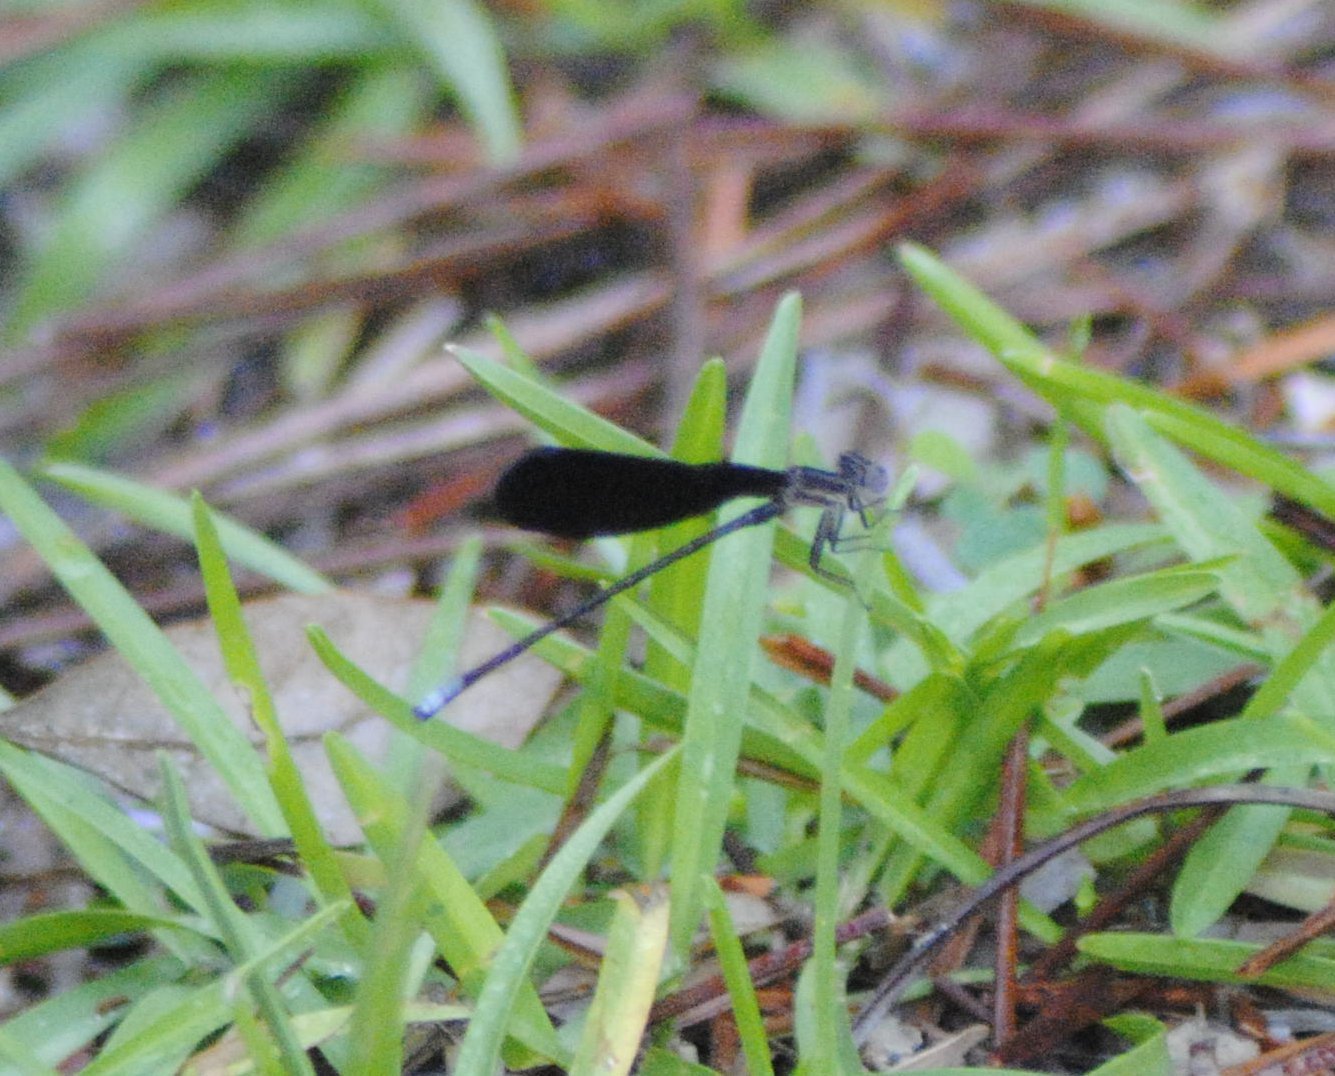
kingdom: Animalia
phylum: Arthropoda
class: Insecta
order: Odonata
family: Coenagrionidae
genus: Argia
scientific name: Argia fumipennis
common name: Variable dancer
